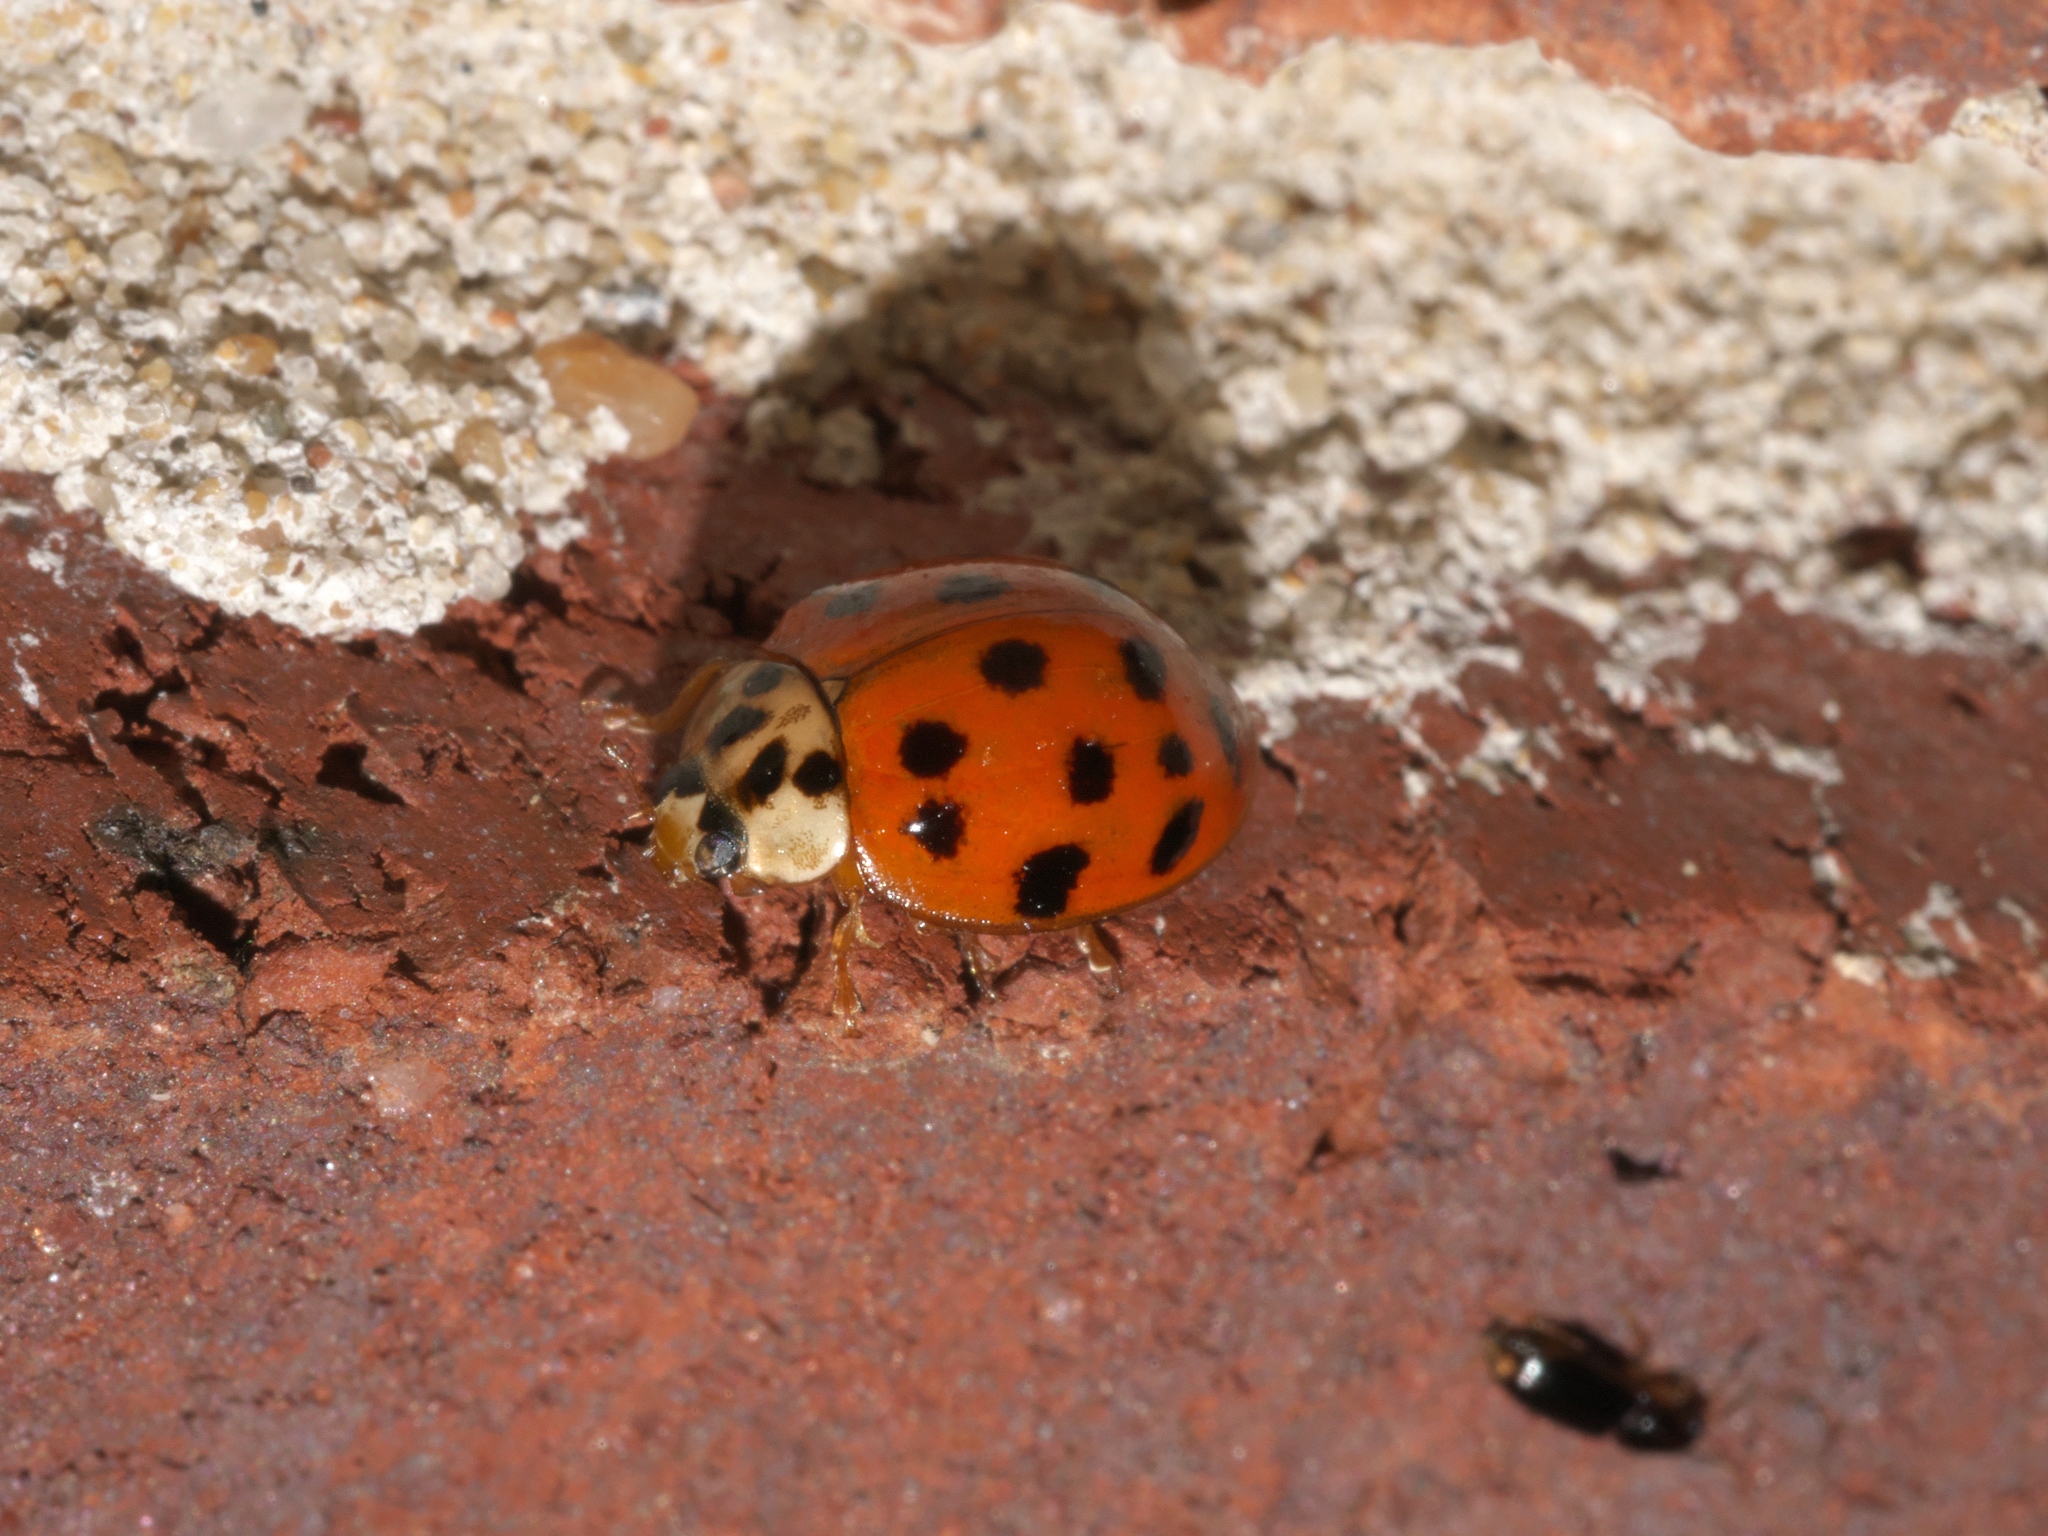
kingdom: Animalia
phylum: Arthropoda
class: Insecta
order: Coleoptera
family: Coccinellidae
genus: Harmonia
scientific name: Harmonia axyridis
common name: Harlequin ladybird
